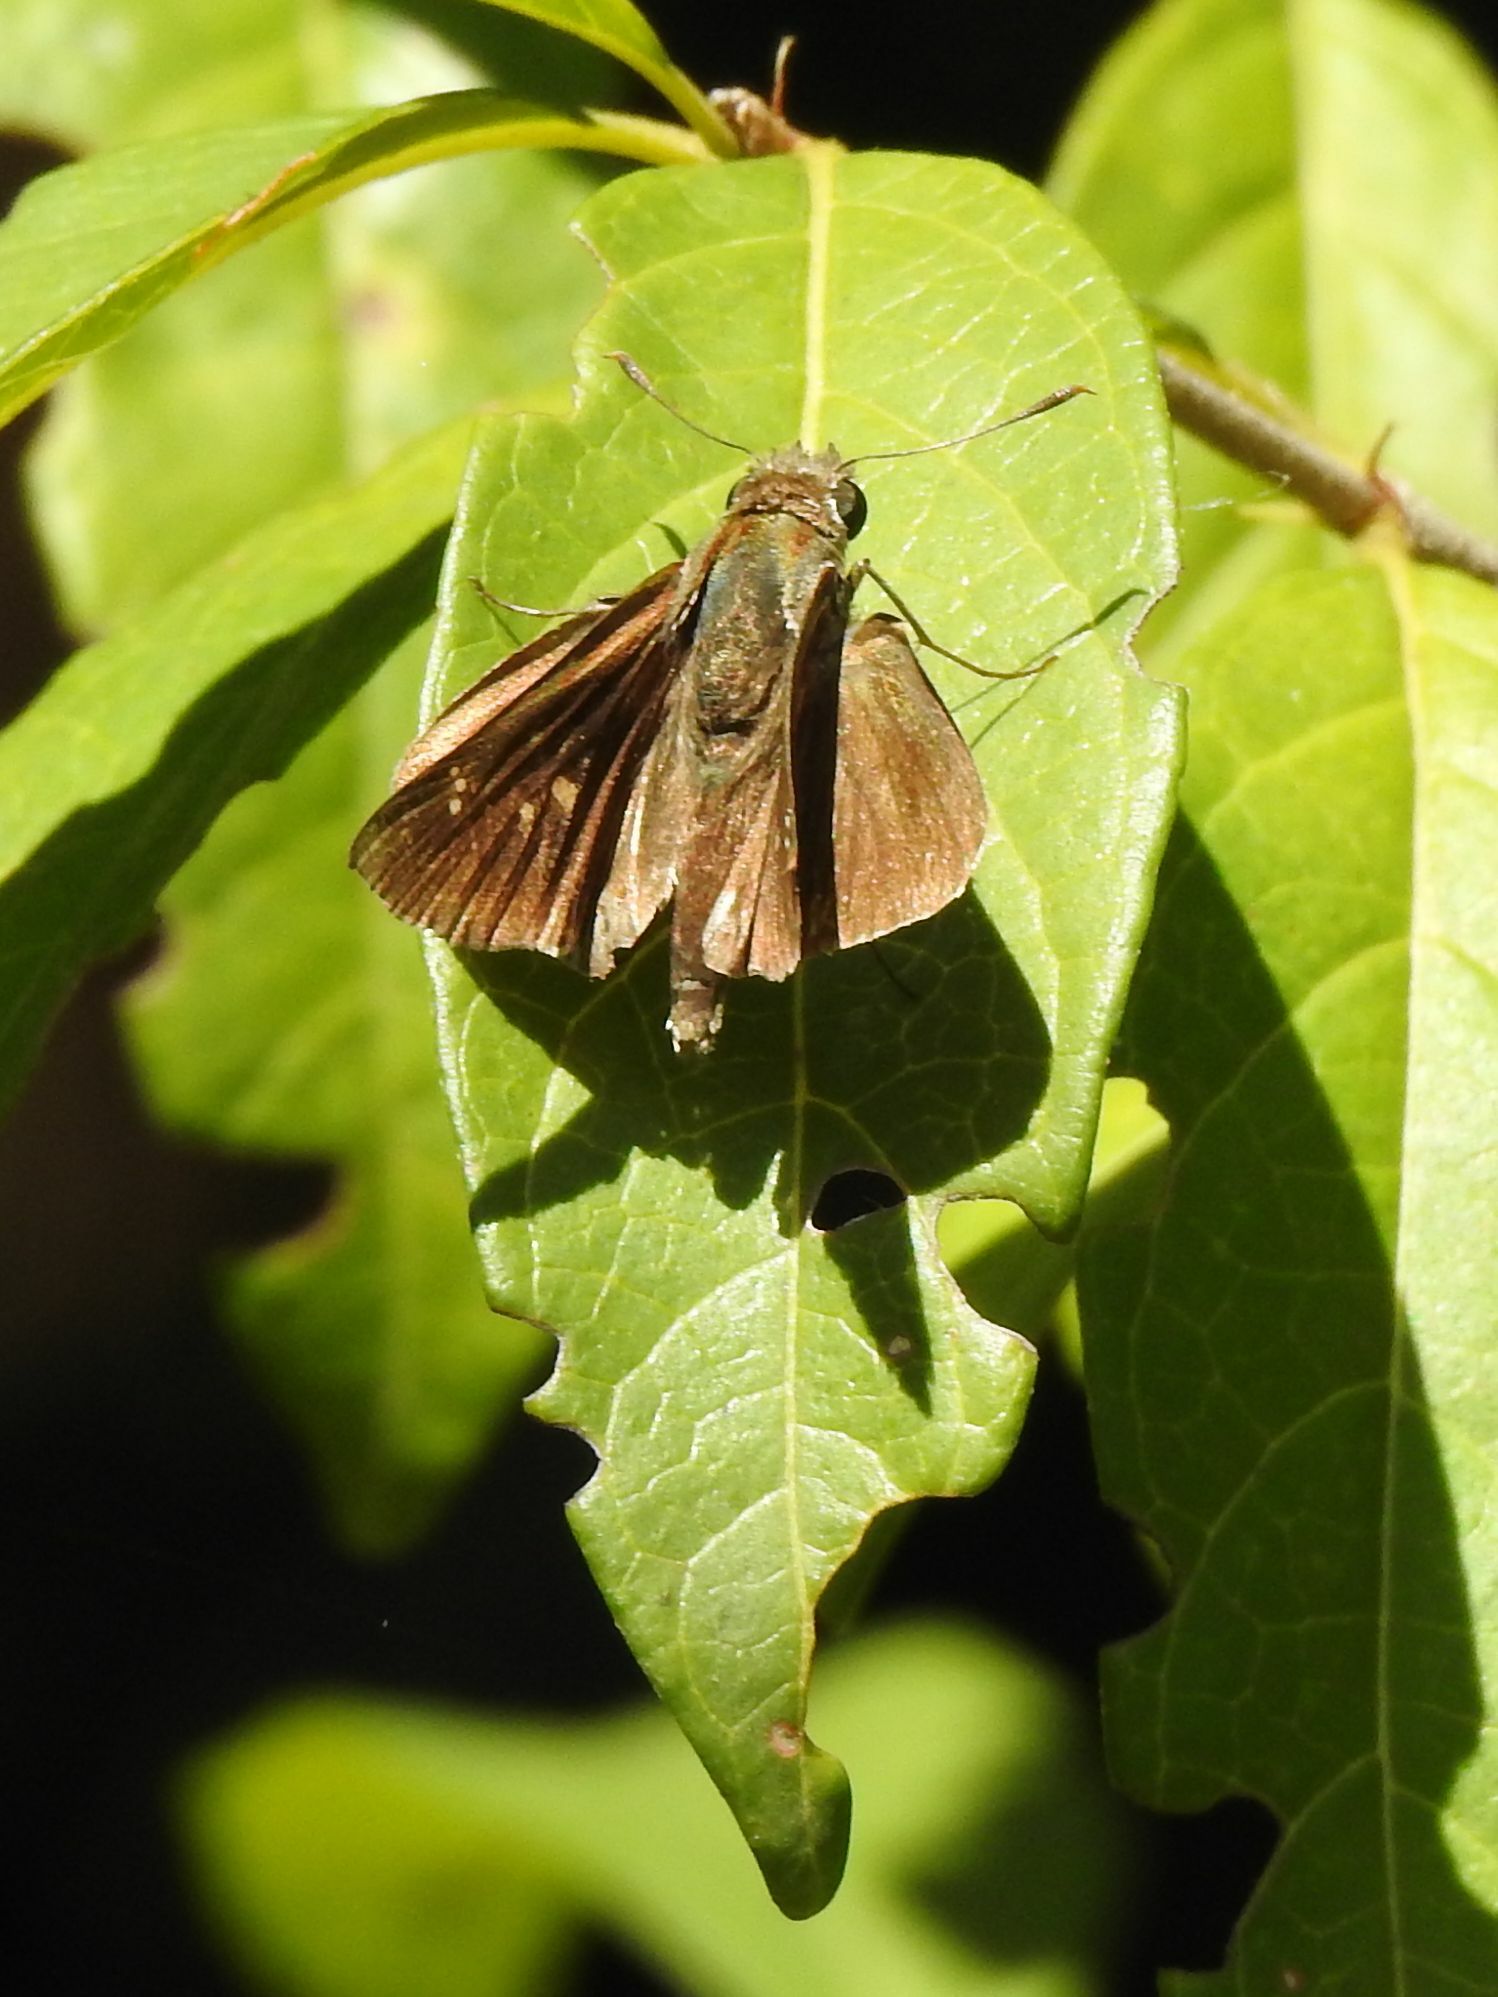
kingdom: Animalia
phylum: Arthropoda
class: Insecta
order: Lepidoptera
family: Hesperiidae
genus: Baoris
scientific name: Baoris fatuellus
